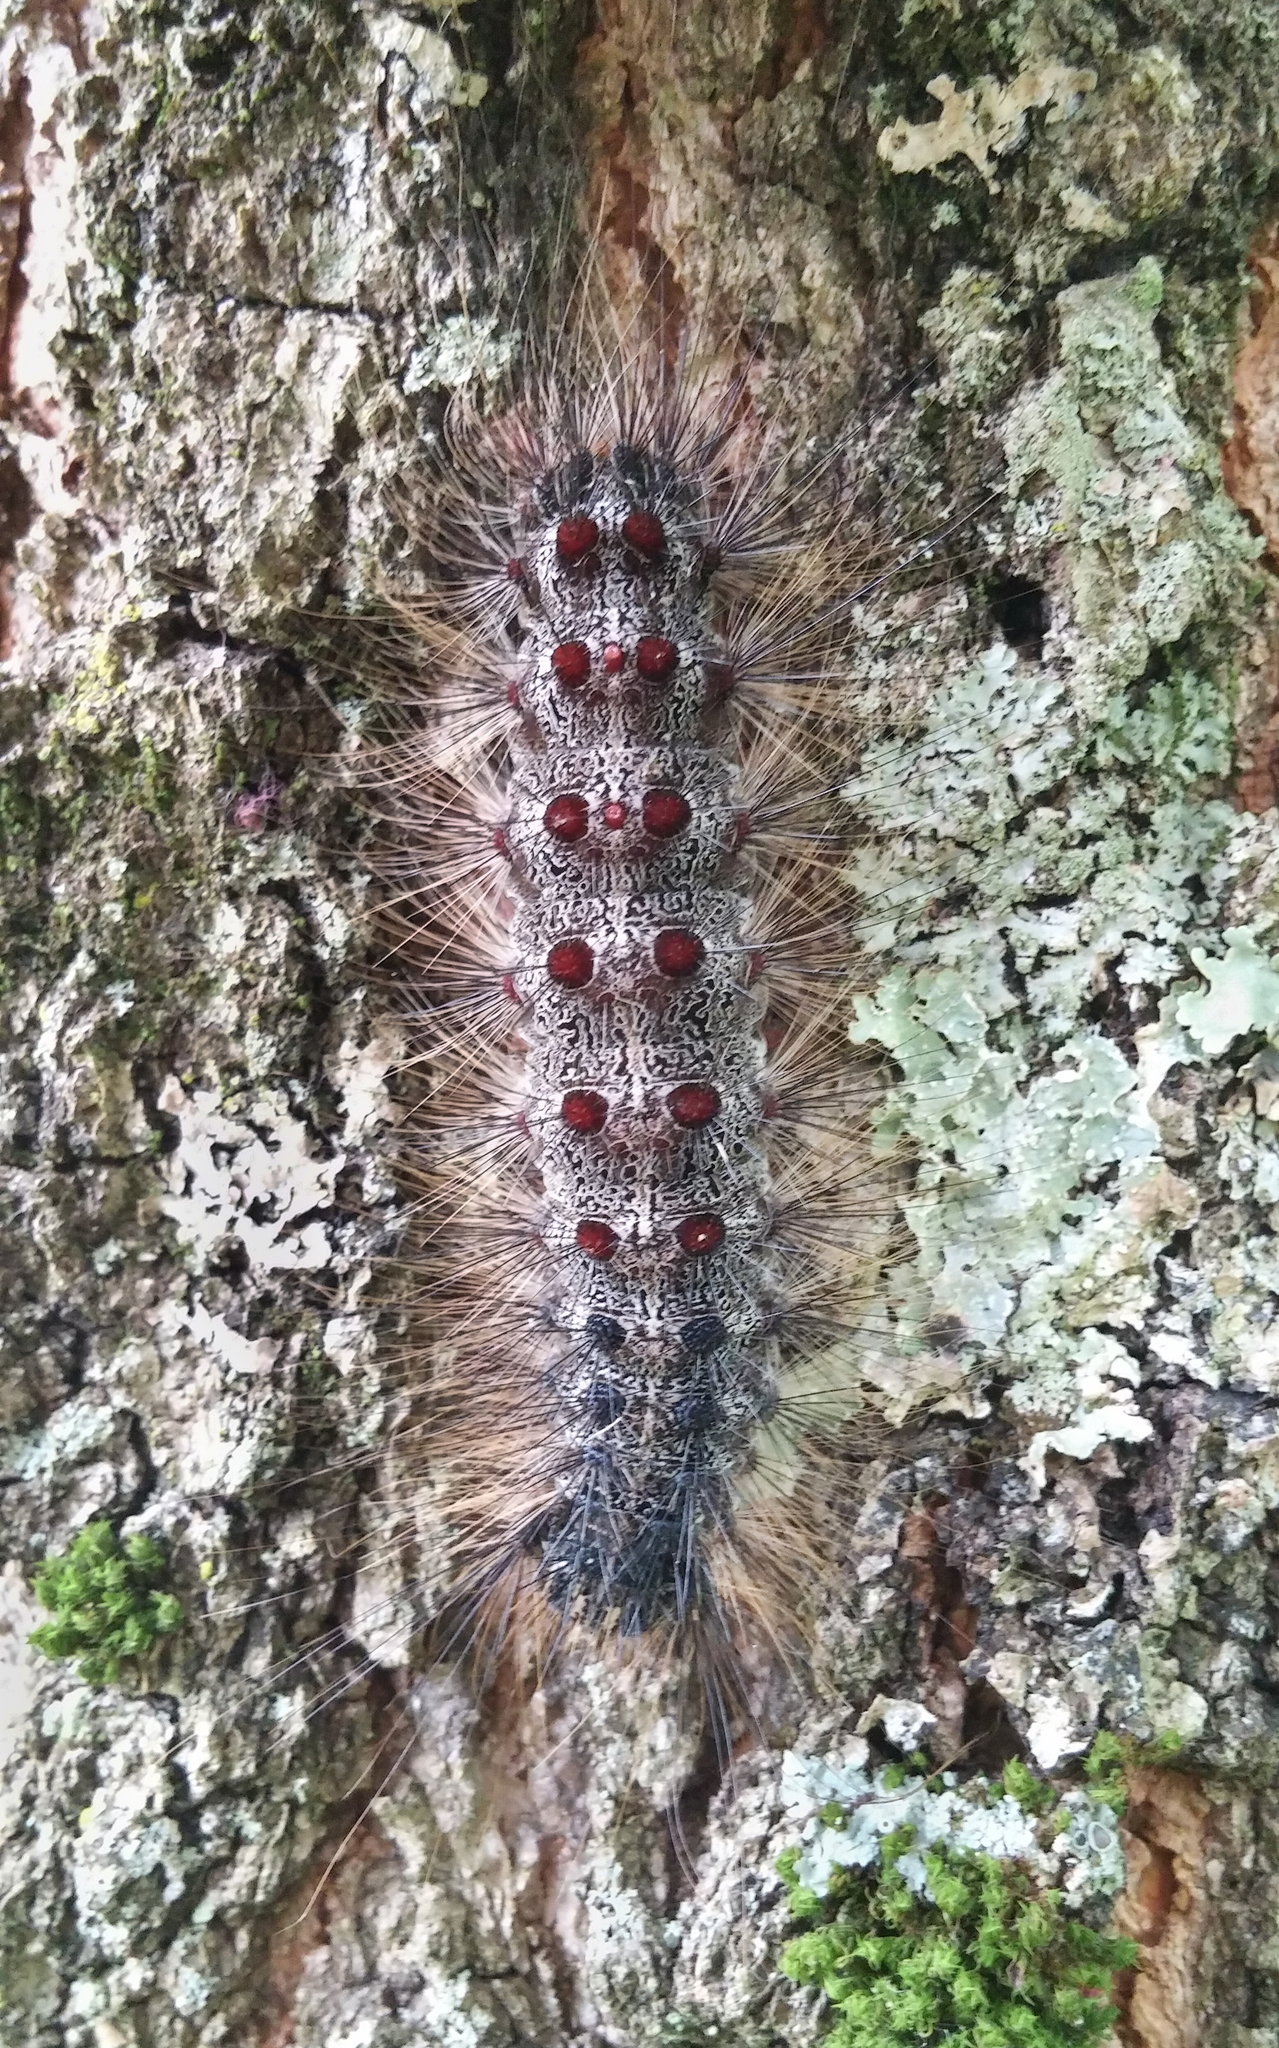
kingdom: Animalia
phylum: Arthropoda
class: Insecta
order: Lepidoptera
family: Erebidae
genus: Lymantria
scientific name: Lymantria dispar
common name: Gypsy moth
